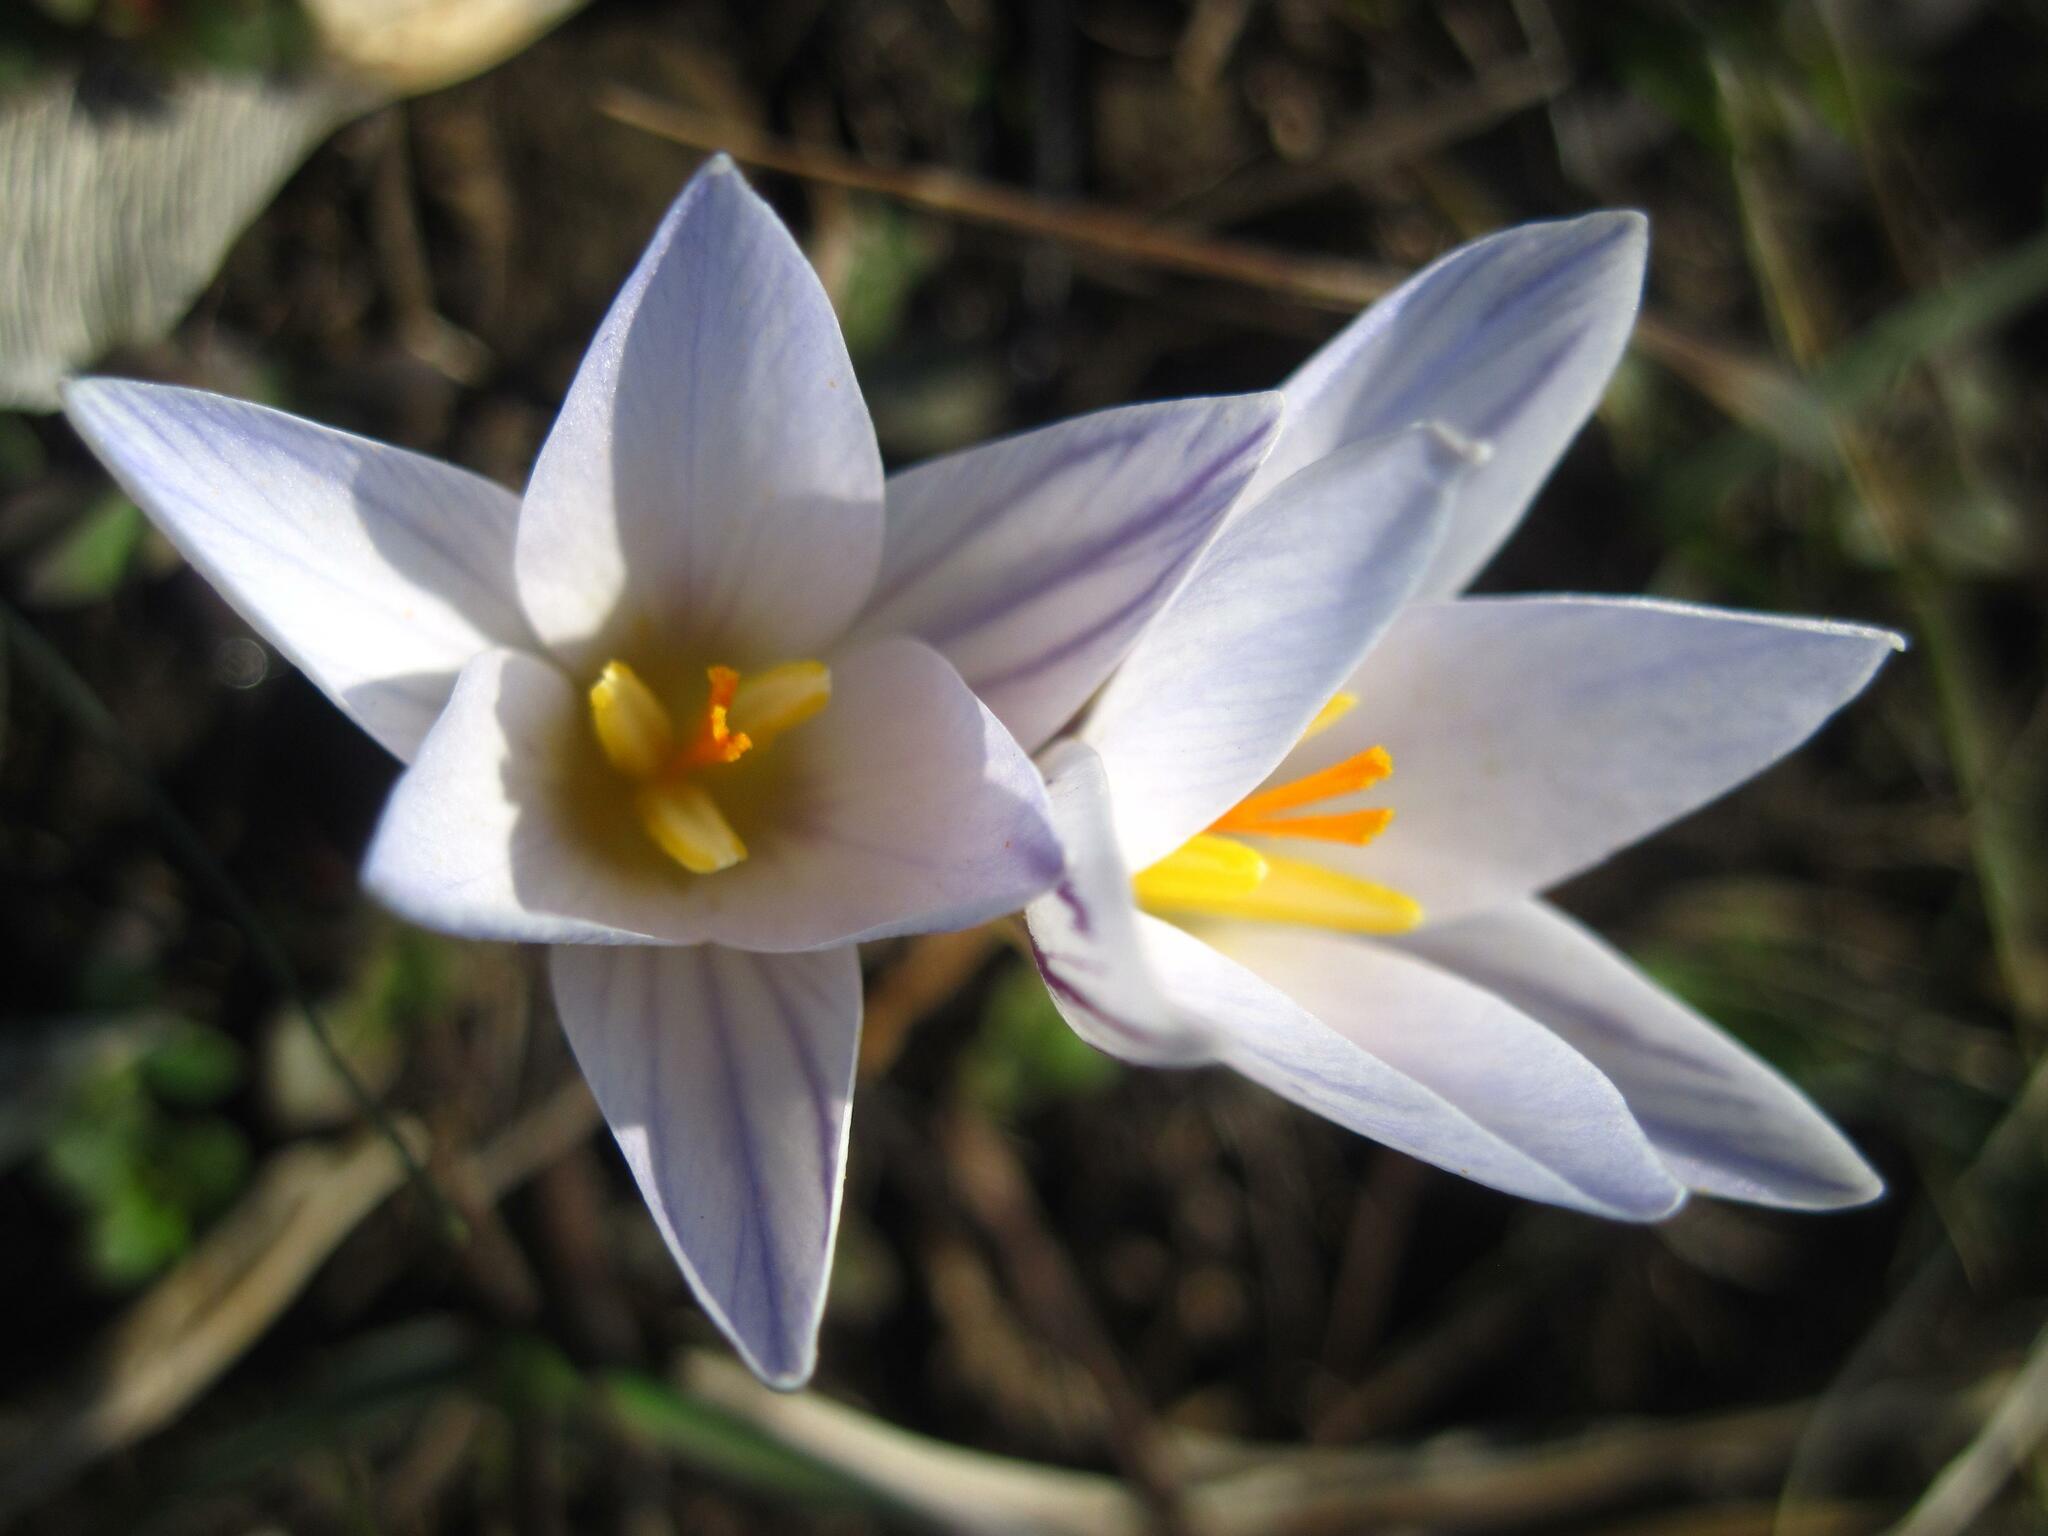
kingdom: Plantae
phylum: Tracheophyta
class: Liliopsida
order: Asparagales
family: Iridaceae
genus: Crocus
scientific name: Crocus reticulatus
